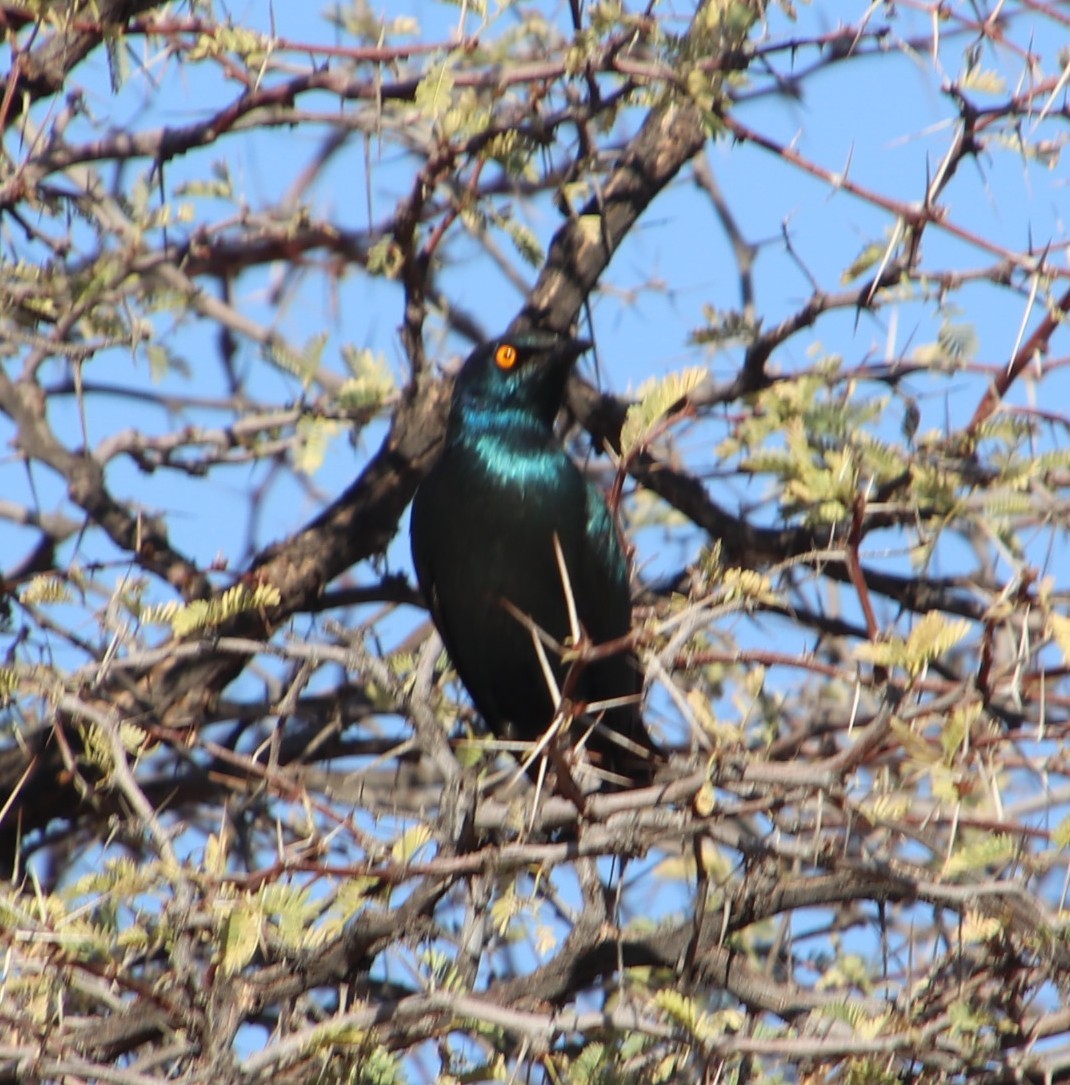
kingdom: Animalia
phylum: Chordata
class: Aves
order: Passeriformes
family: Sturnidae
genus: Lamprotornis
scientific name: Lamprotornis nitens
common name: Cape starling
